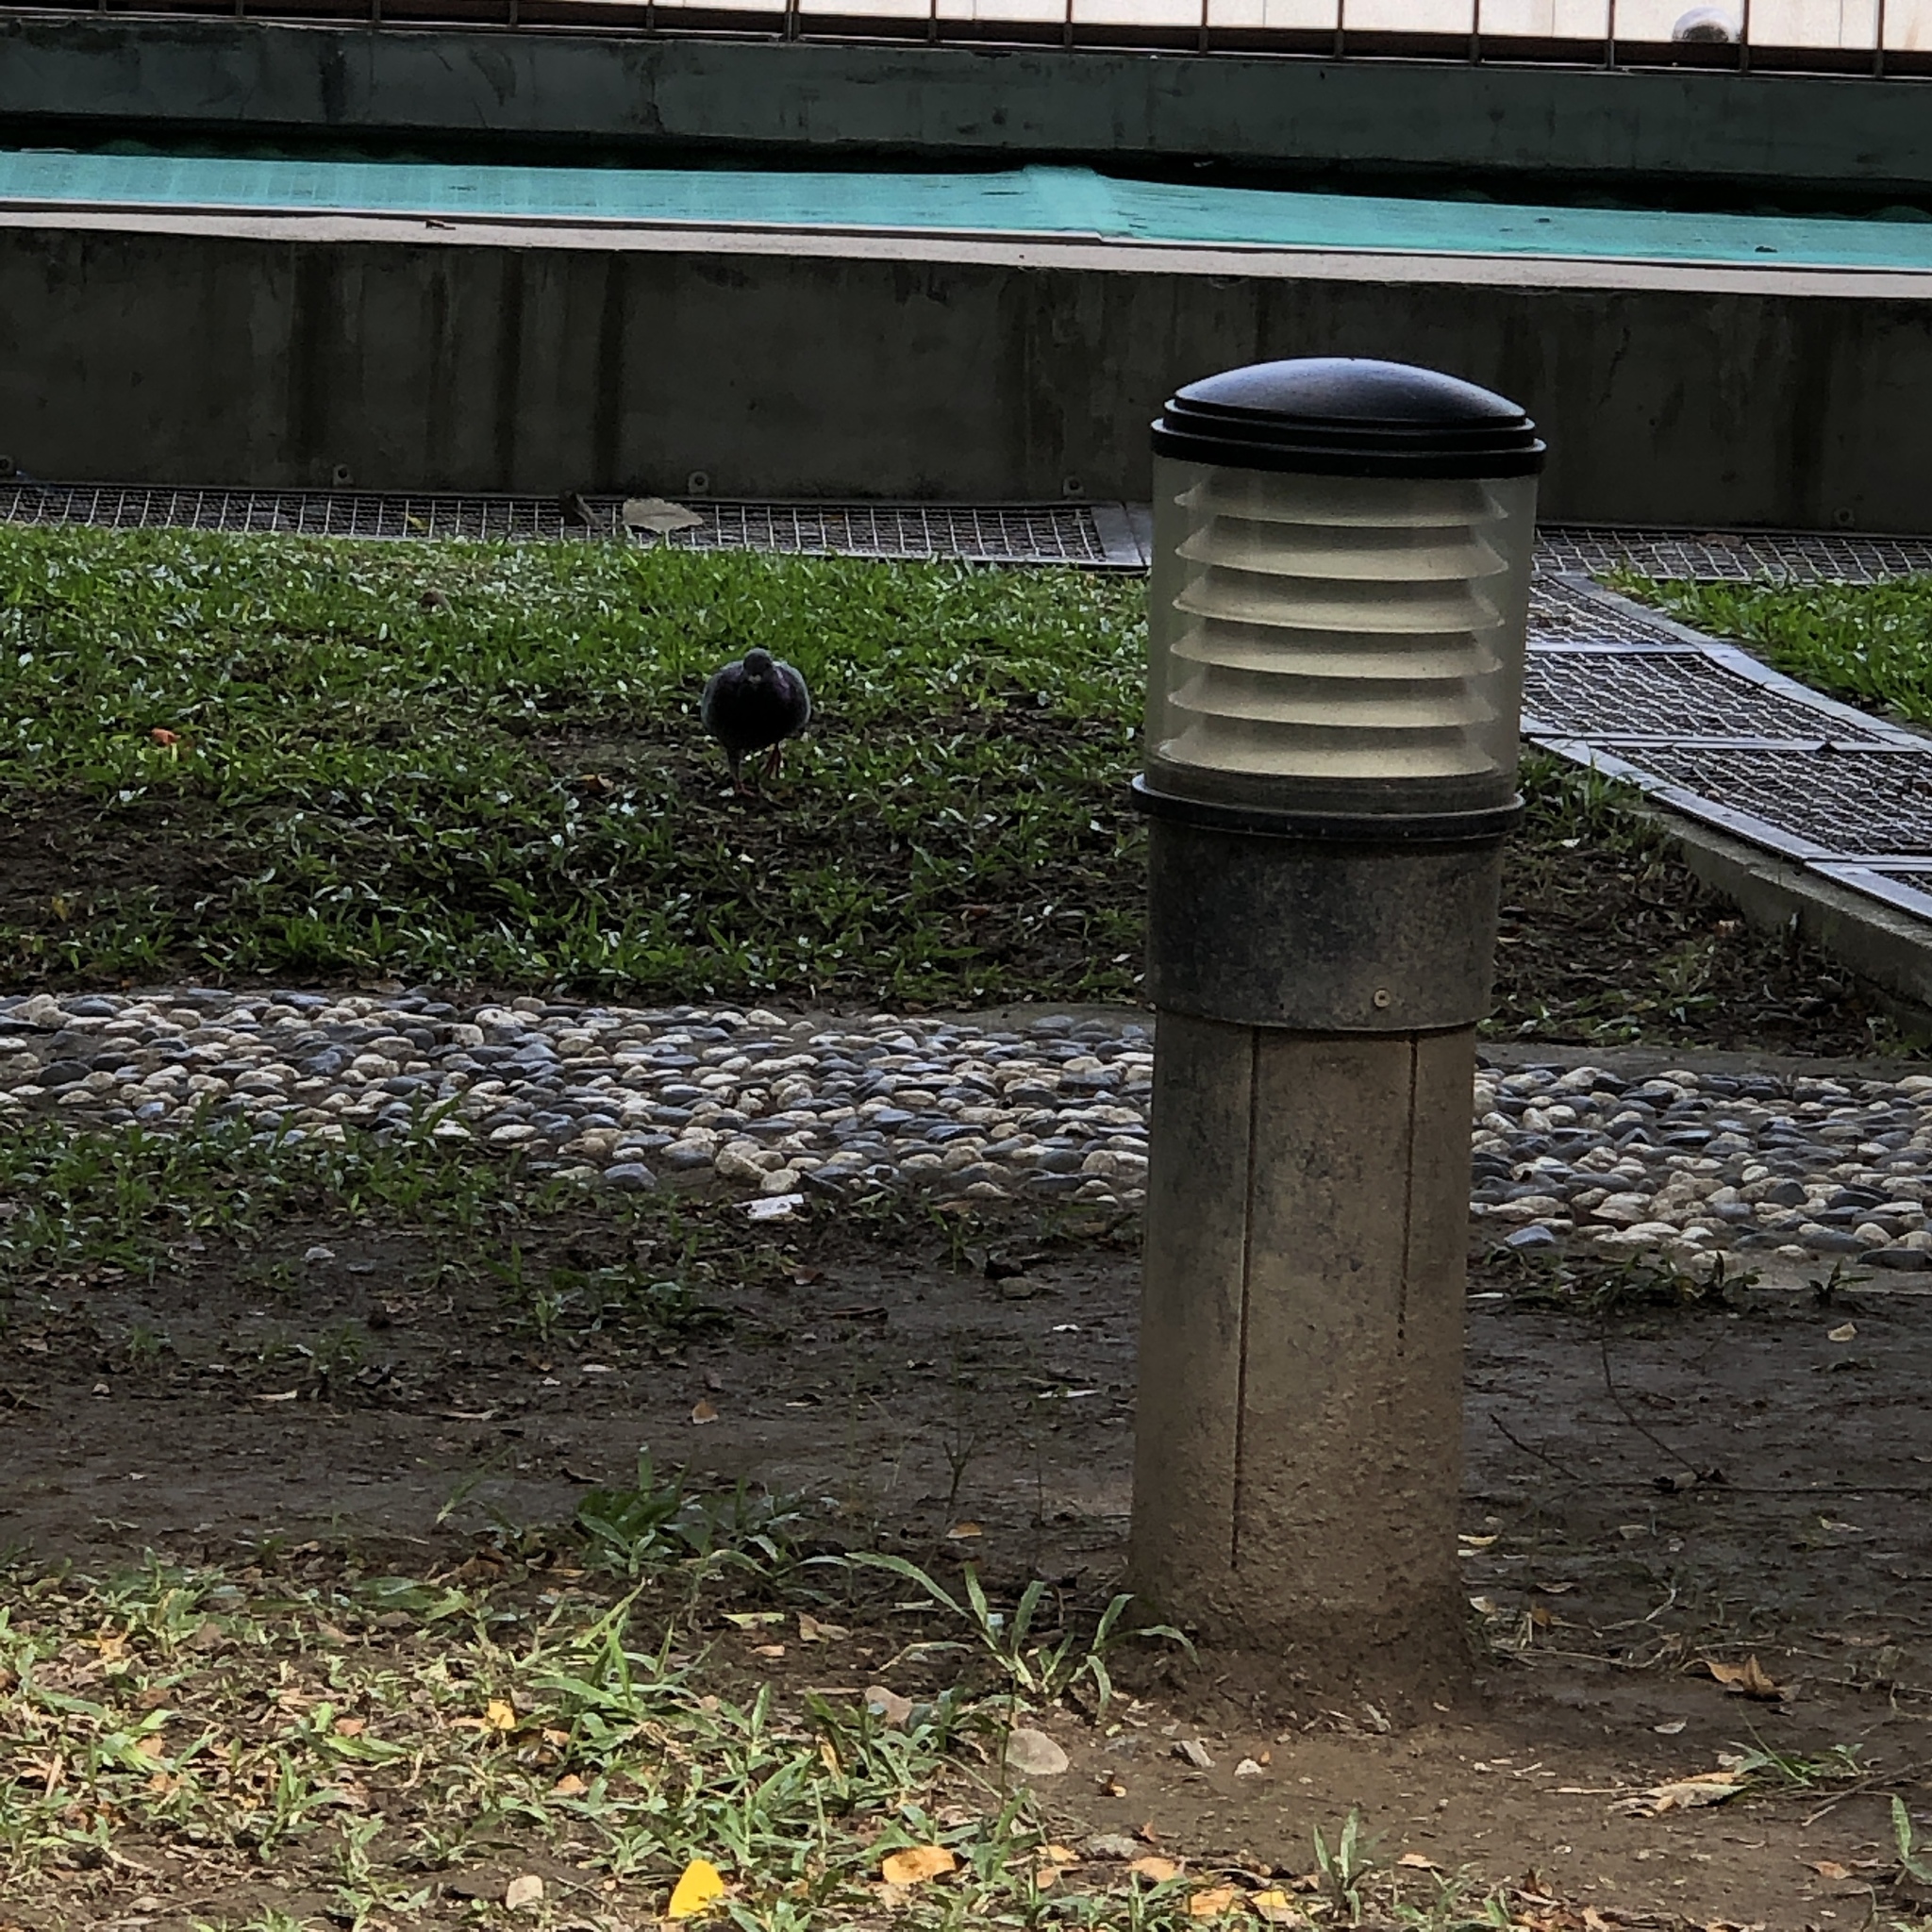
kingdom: Animalia
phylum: Chordata
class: Aves
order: Columbiformes
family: Columbidae
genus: Columba
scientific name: Columba livia
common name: Rock pigeon
